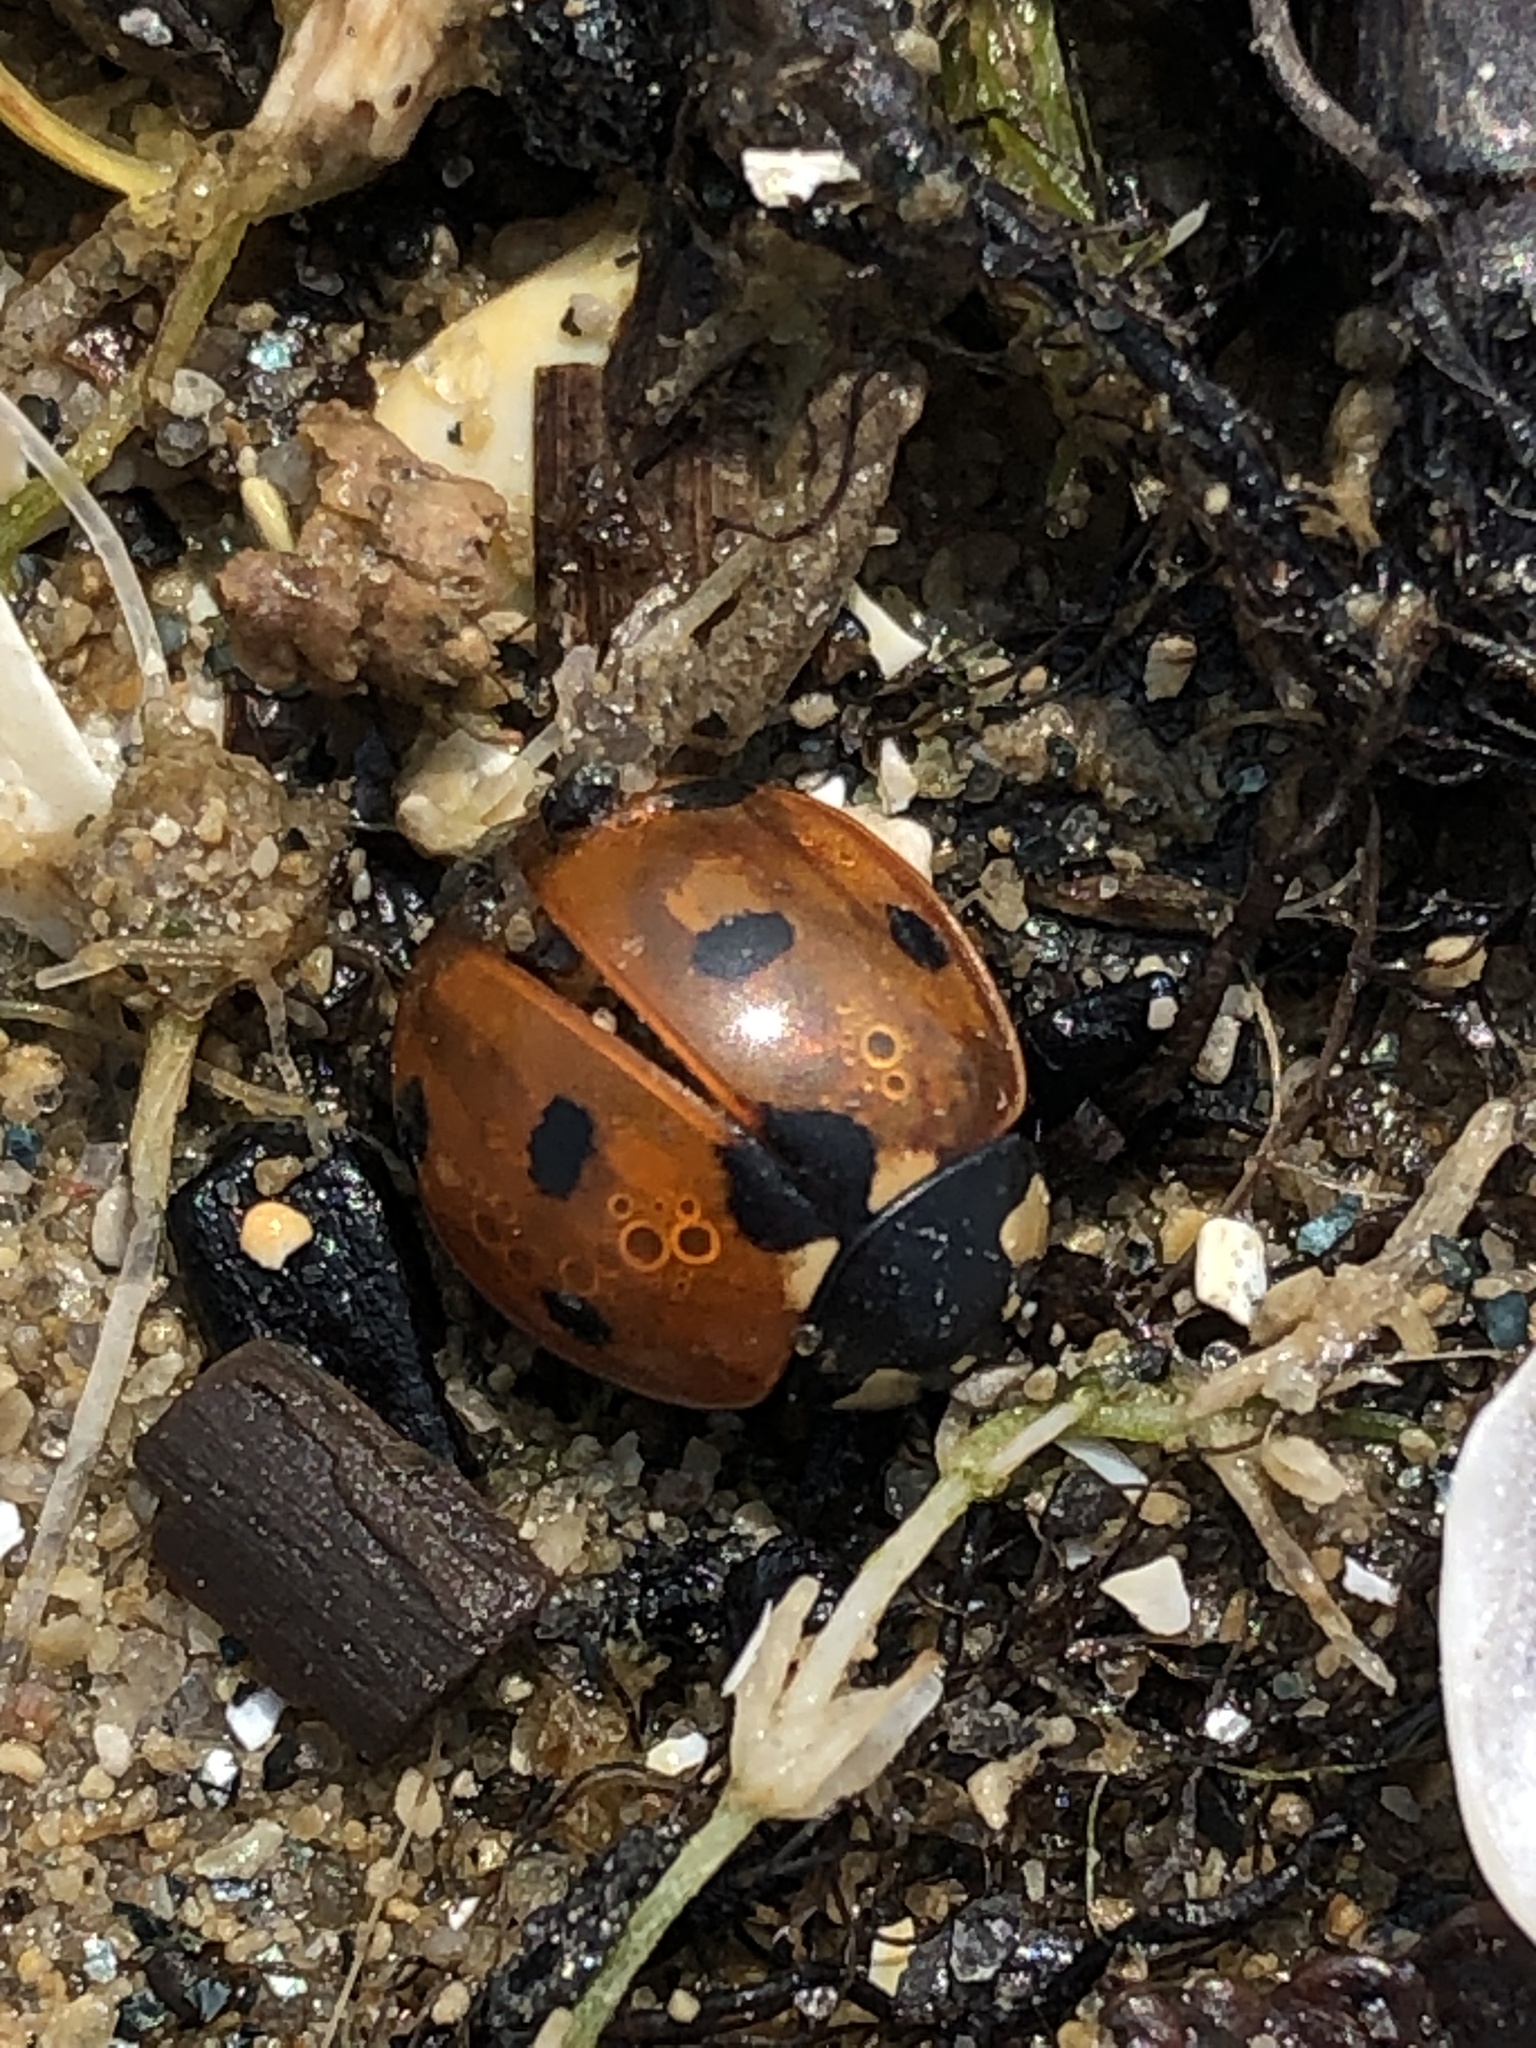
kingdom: Animalia
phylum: Arthropoda
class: Insecta
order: Coleoptera
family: Coccinellidae
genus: Coccinella
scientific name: Coccinella septempunctata
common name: Sevenspotted lady beetle
